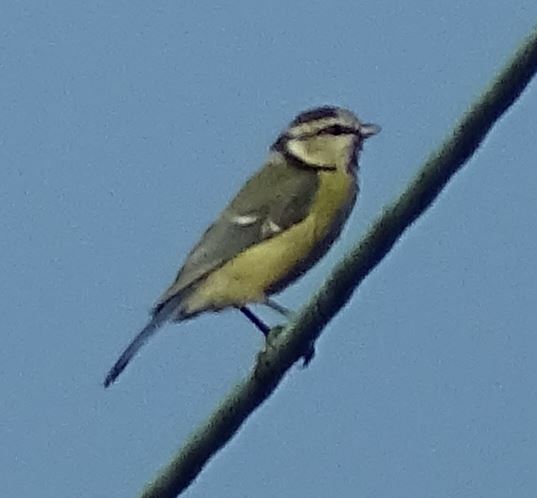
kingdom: Animalia
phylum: Chordata
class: Aves
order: Passeriformes
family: Paridae
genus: Cyanistes
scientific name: Cyanistes caeruleus
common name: Eurasian blue tit
